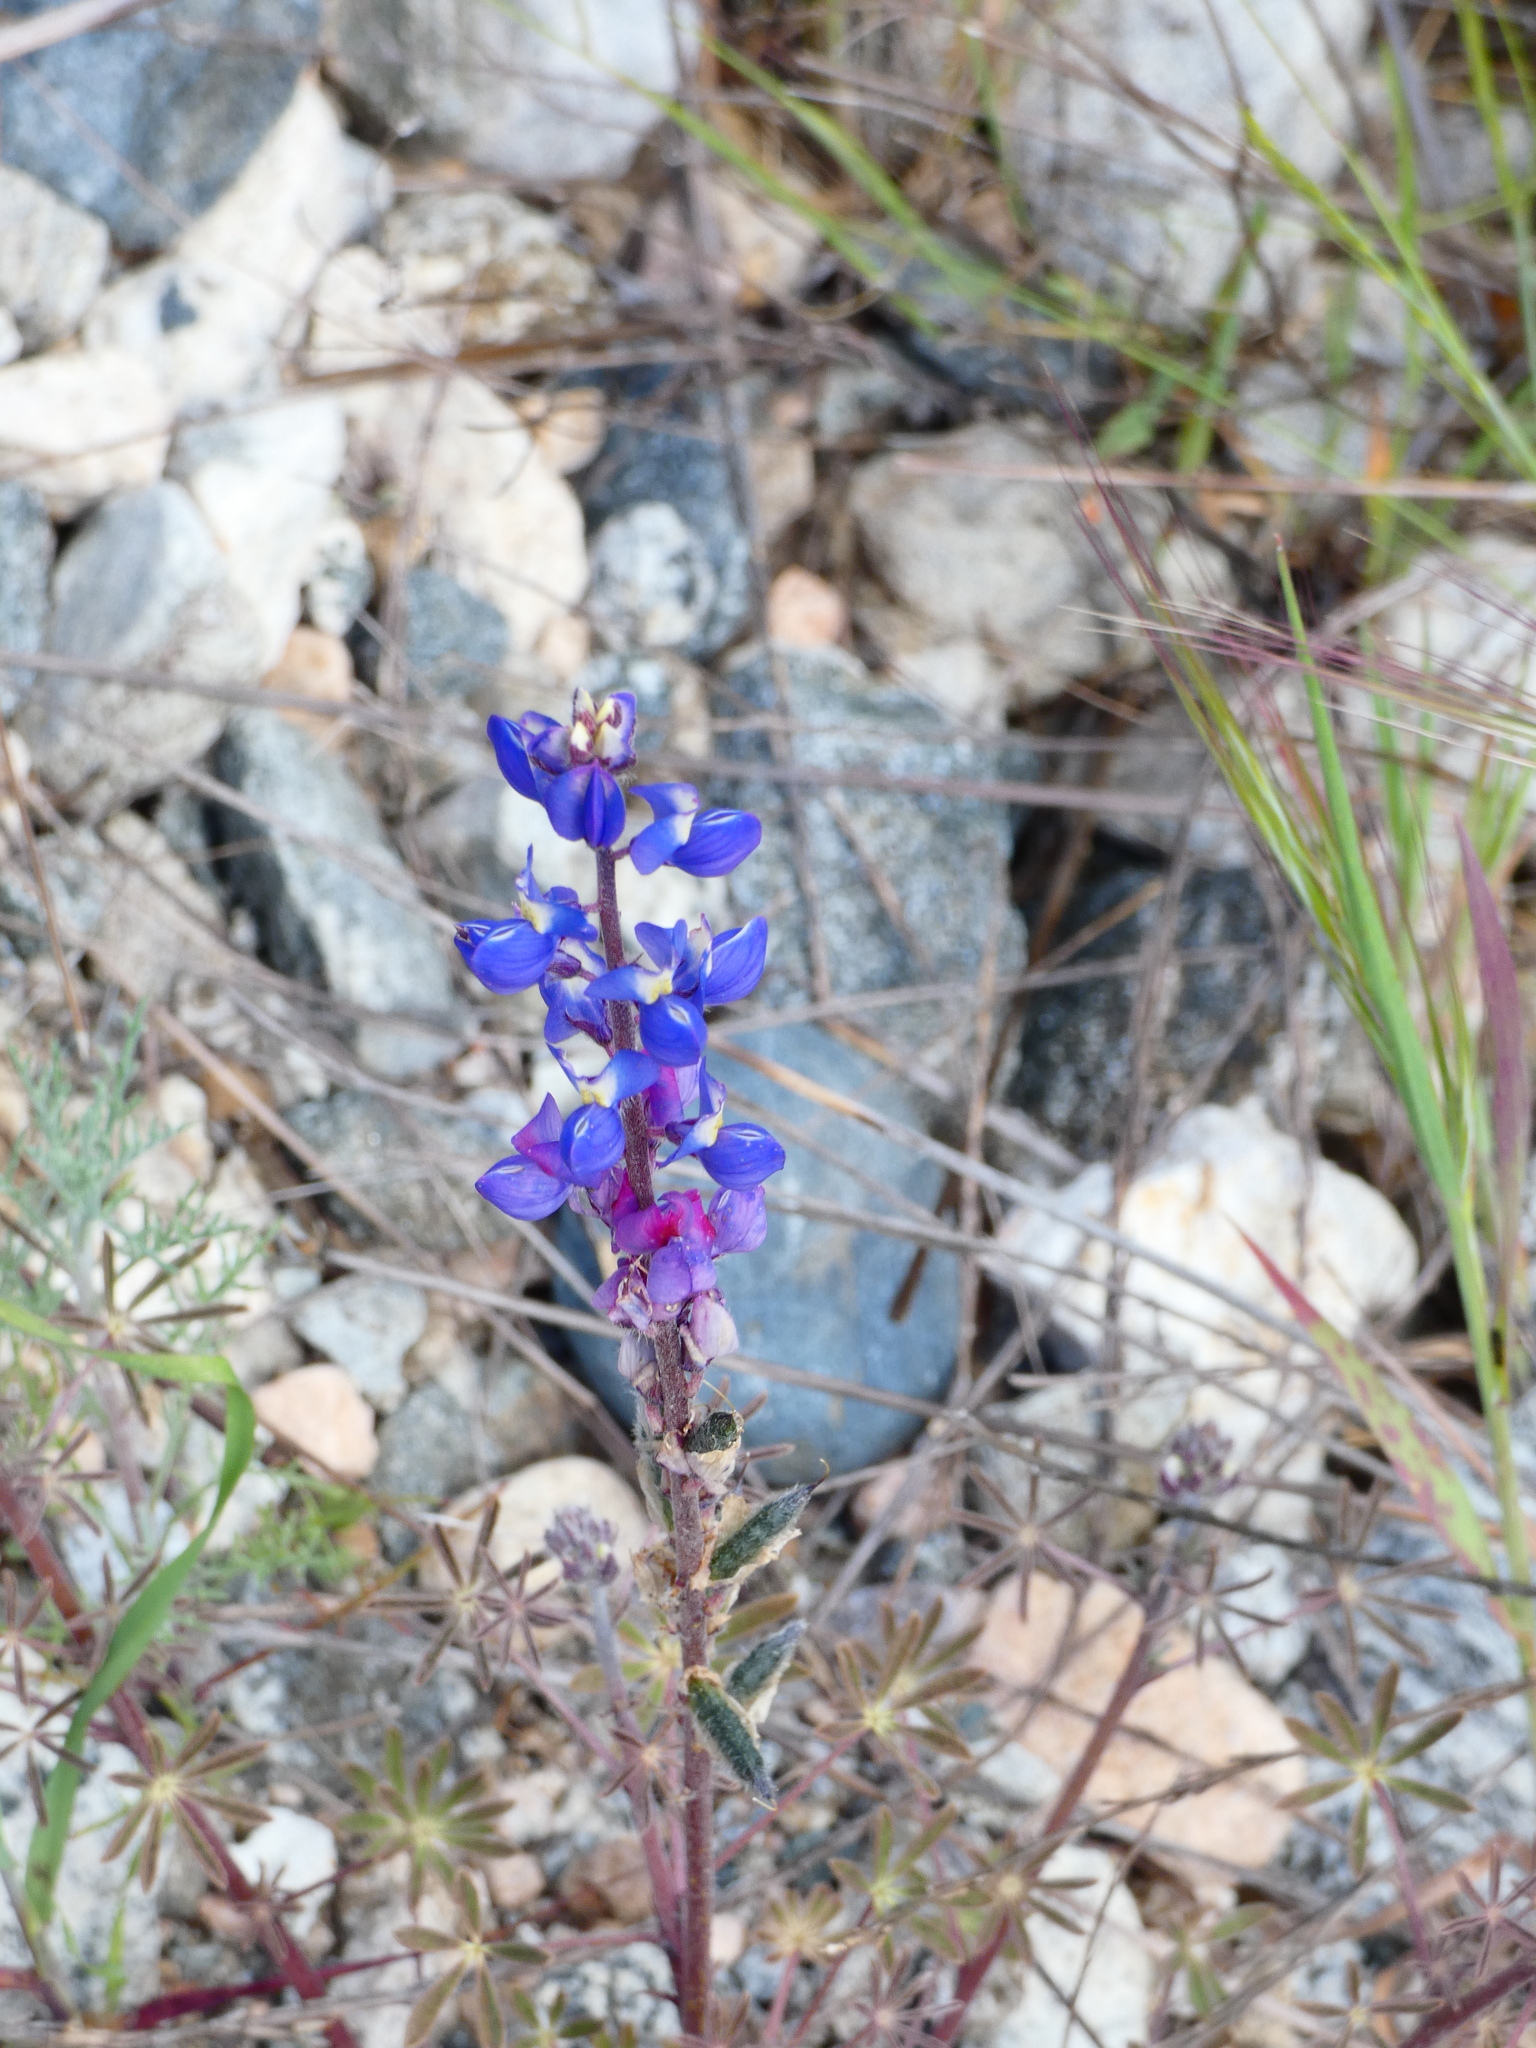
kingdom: Plantae
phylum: Tracheophyta
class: Magnoliopsida
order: Fabales
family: Fabaceae
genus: Lupinus
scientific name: Lupinus sparsiflorus
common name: Coulter's lupine
